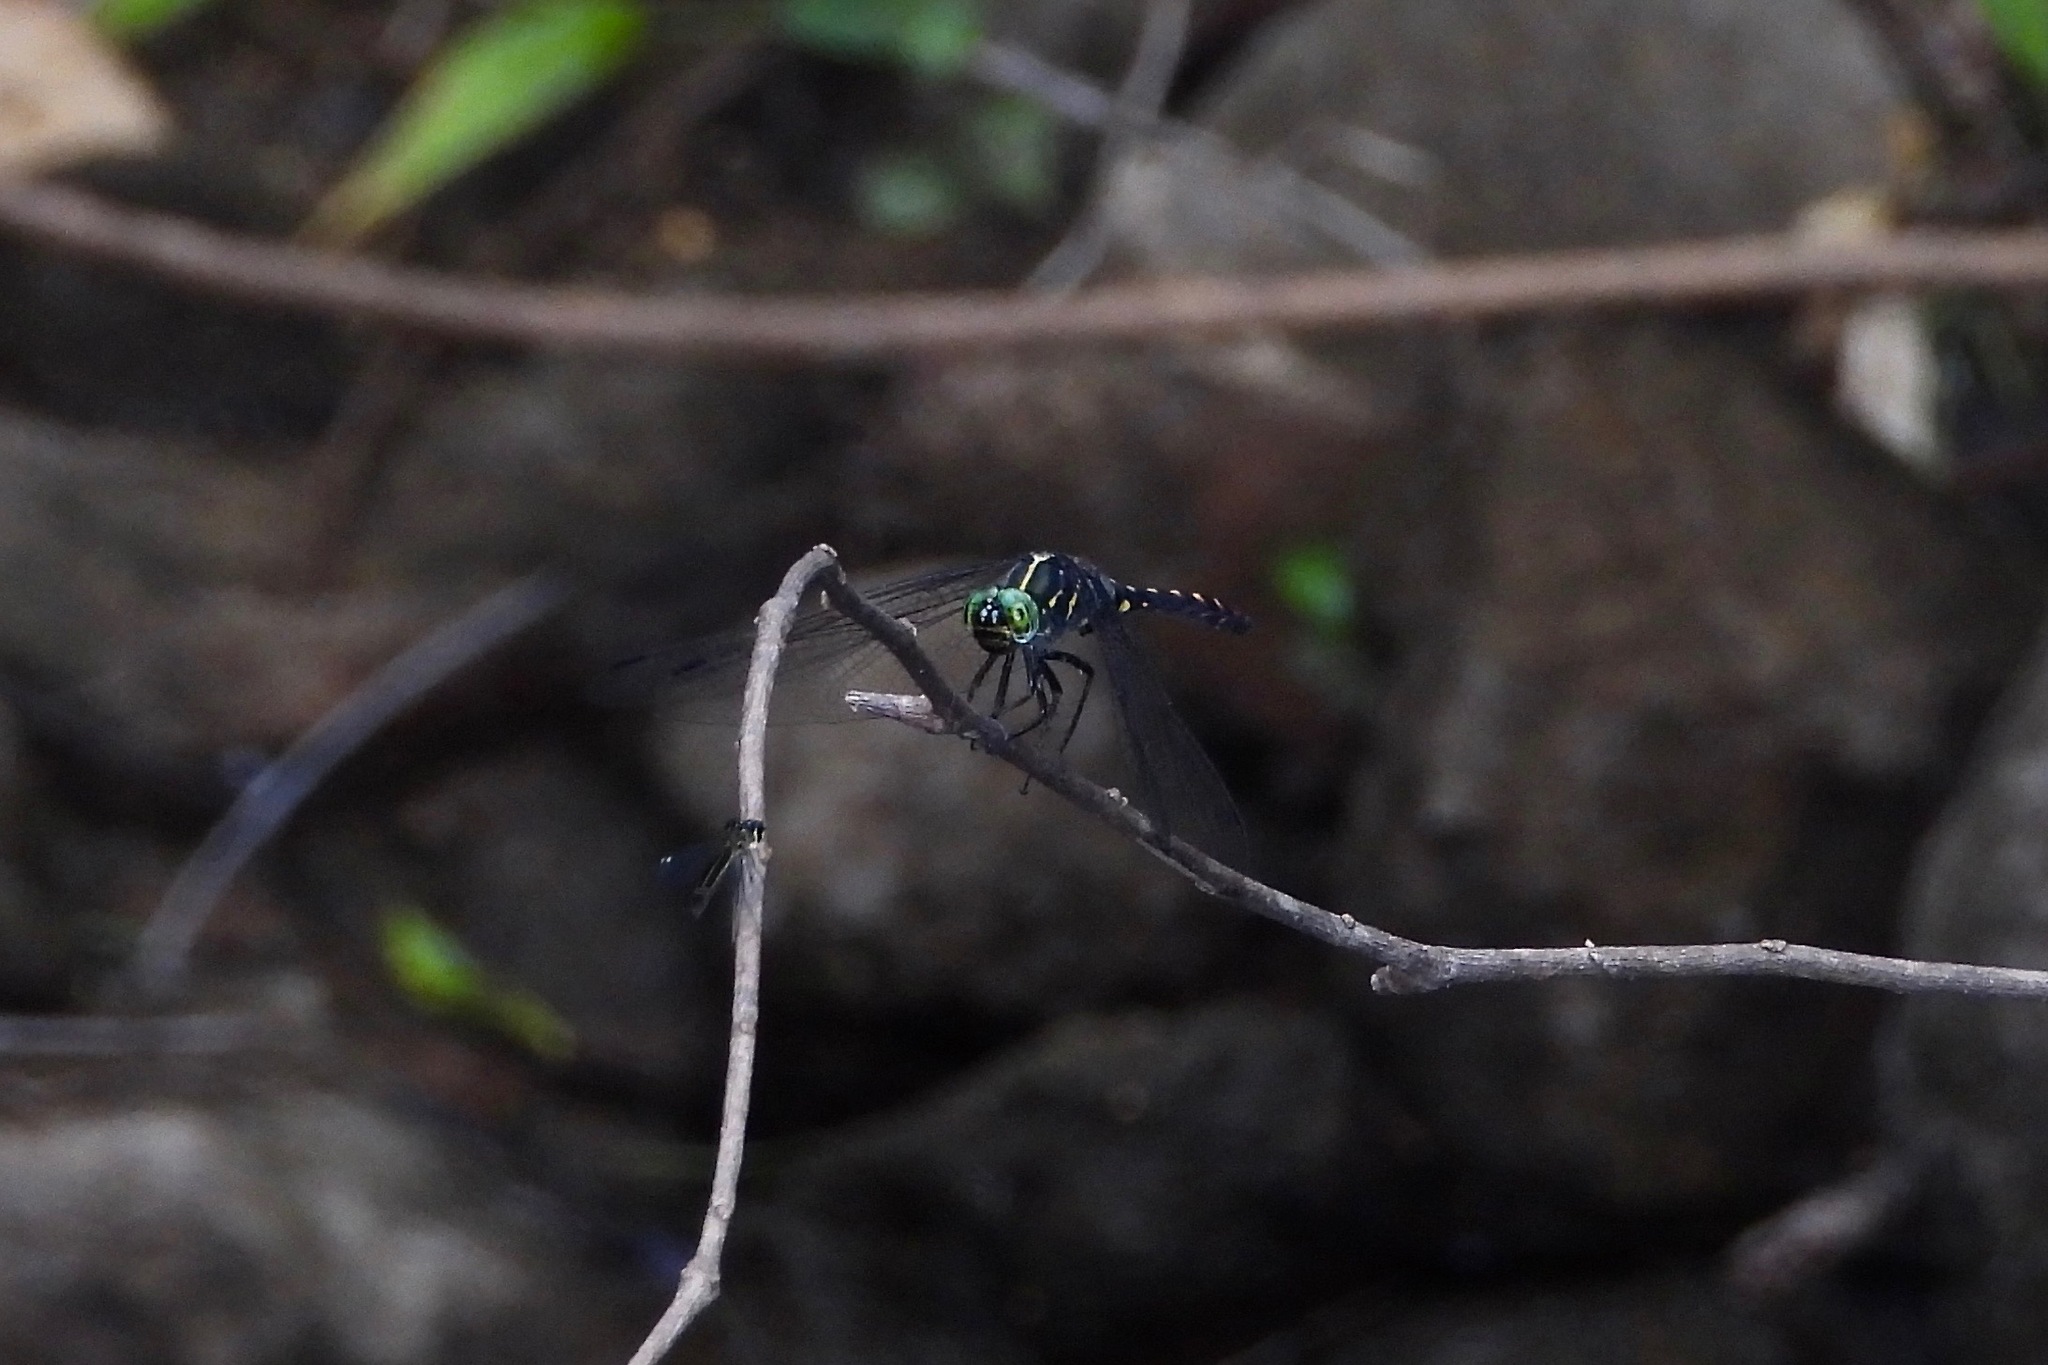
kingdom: Animalia
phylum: Arthropoda
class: Insecta
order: Odonata
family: Libellulidae
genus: Onychothemis
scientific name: Onychothemis testacea
